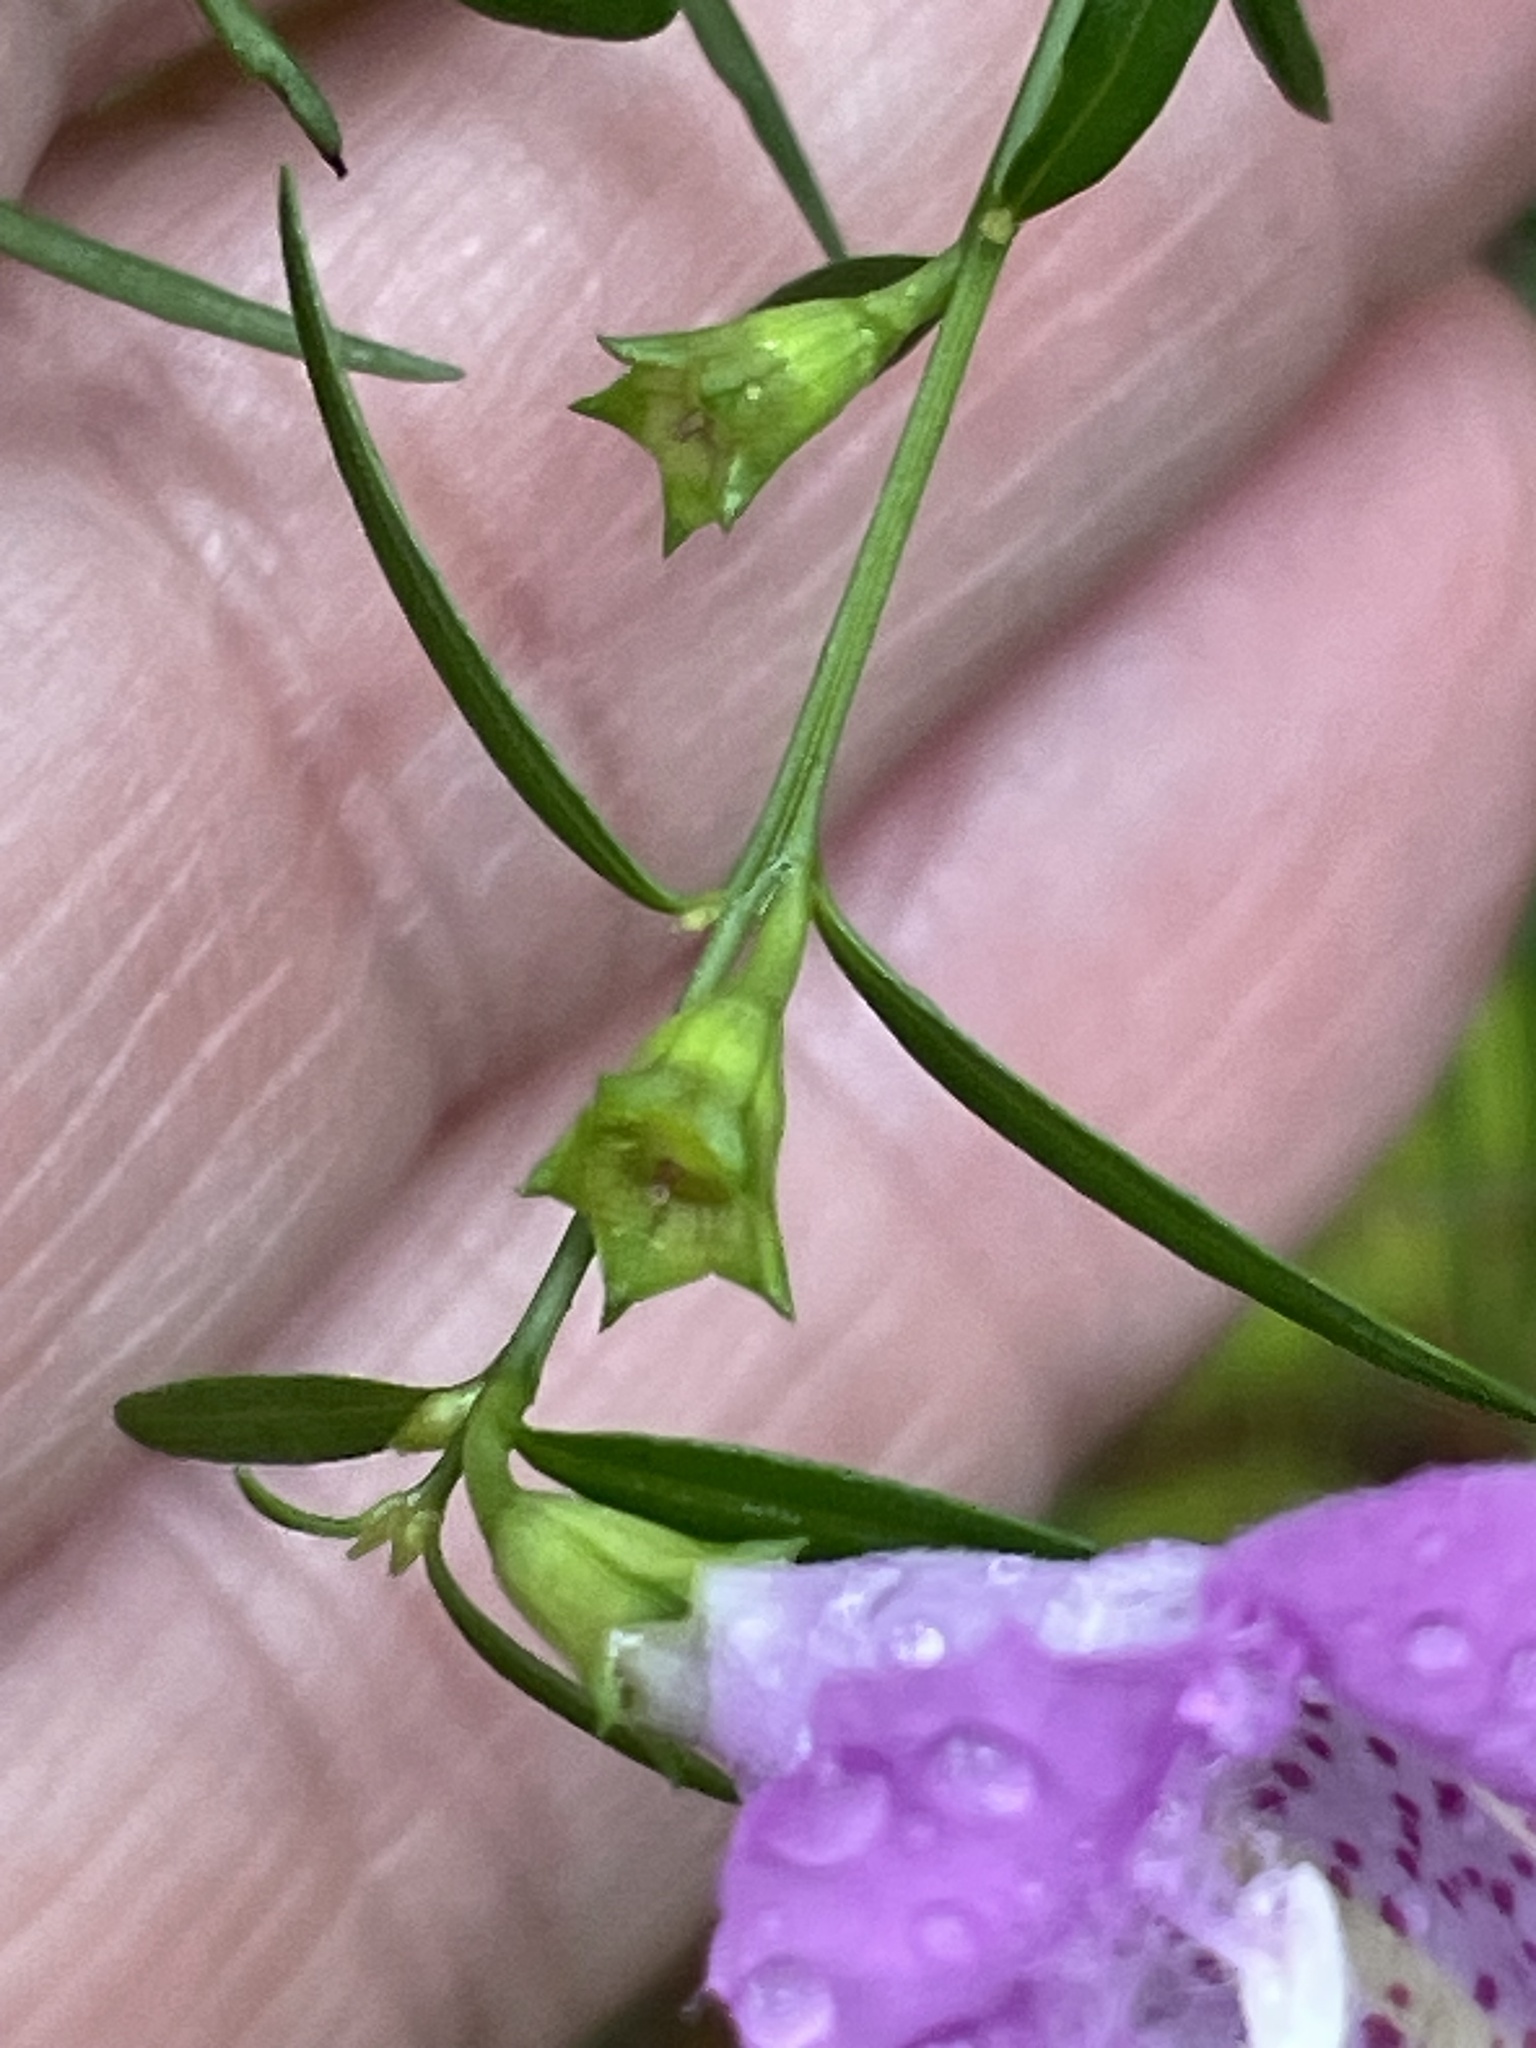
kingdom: Plantae
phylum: Tracheophyta
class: Magnoliopsida
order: Lamiales
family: Orobanchaceae
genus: Agalinis
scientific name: Agalinis purpurea
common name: Purple false foxglove
